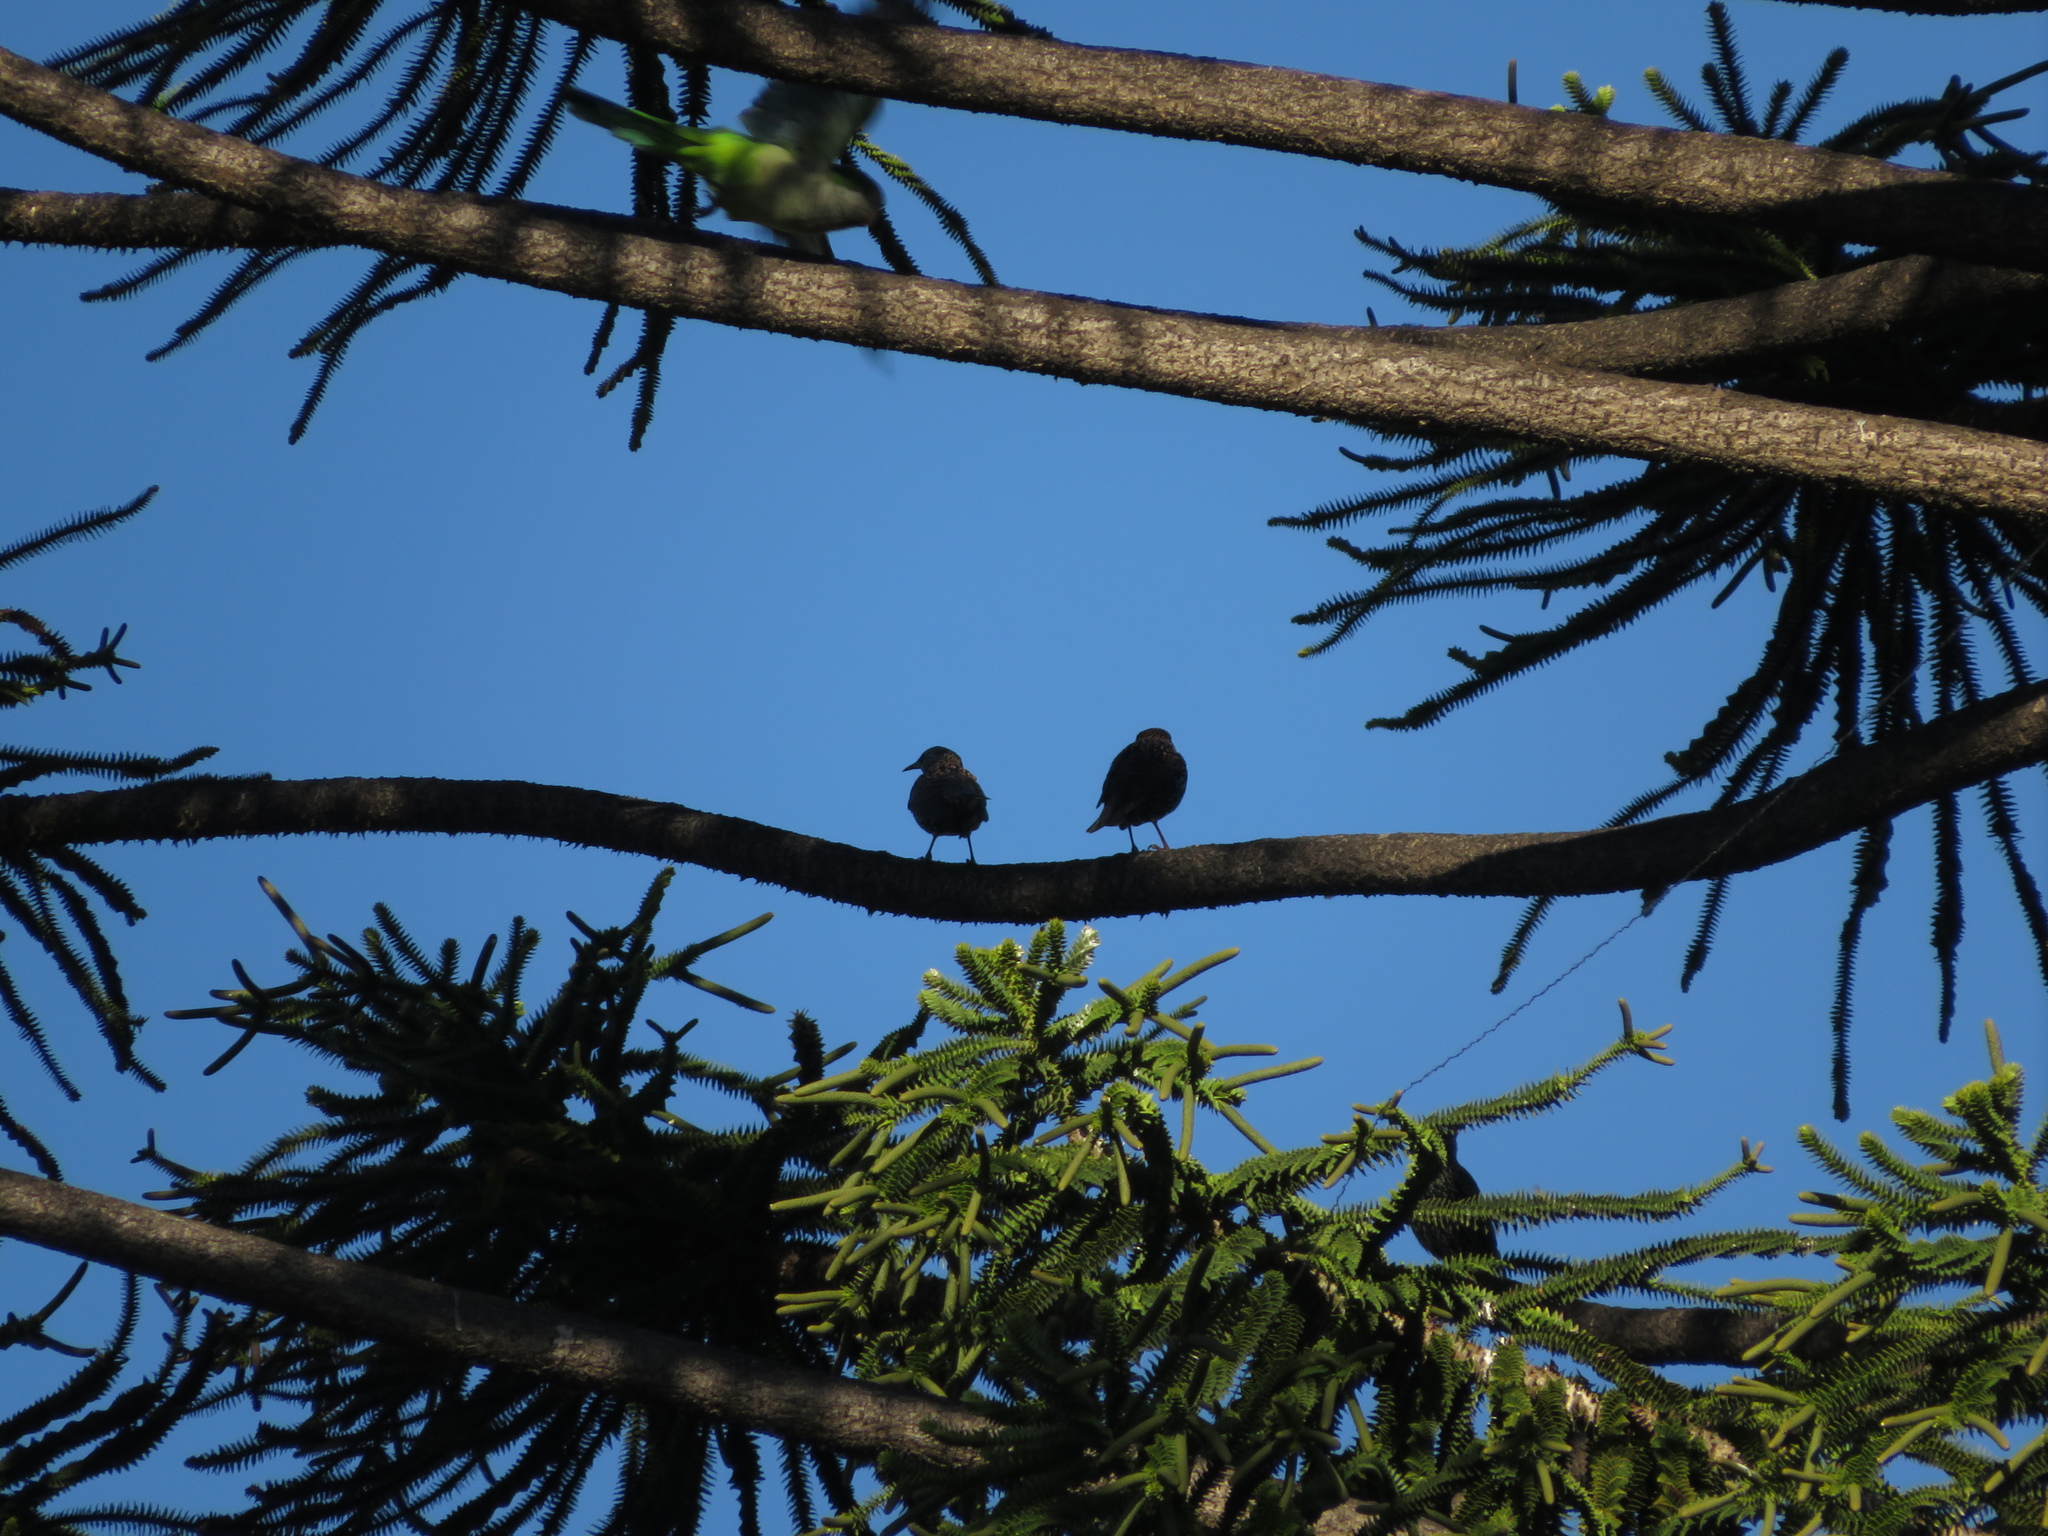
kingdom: Animalia
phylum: Chordata
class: Aves
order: Passeriformes
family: Sturnidae
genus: Sturnus
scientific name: Sturnus vulgaris
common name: Common starling
